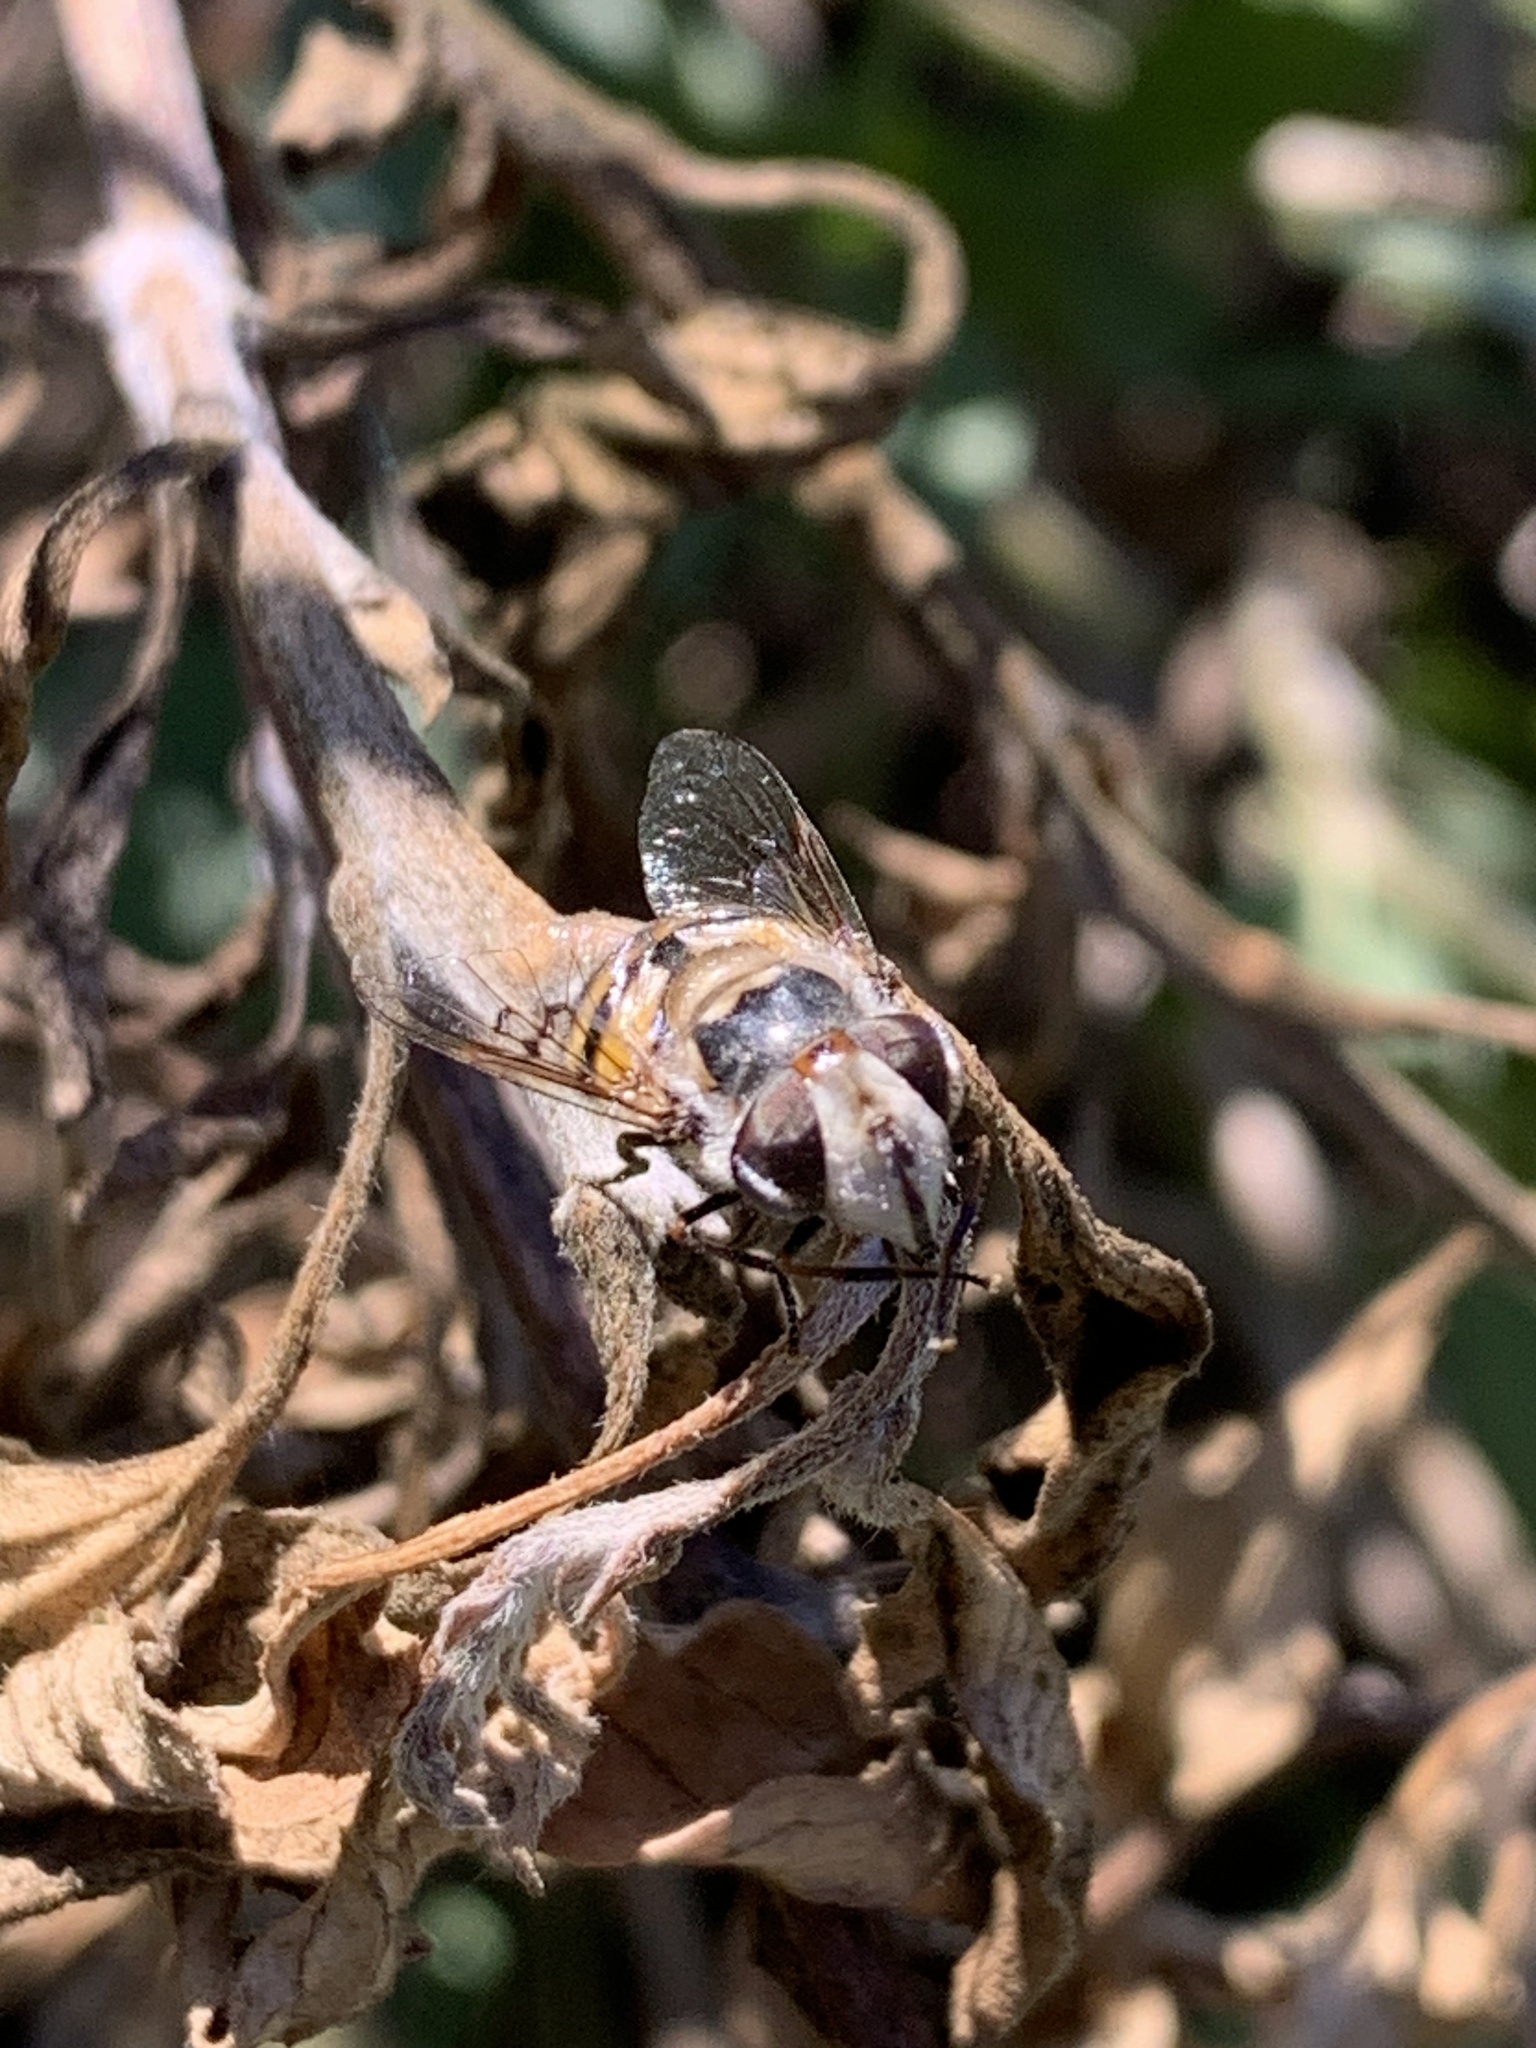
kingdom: Animalia
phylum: Arthropoda
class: Insecta
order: Diptera
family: Syrphidae
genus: Copestylum
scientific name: Copestylum avidum
